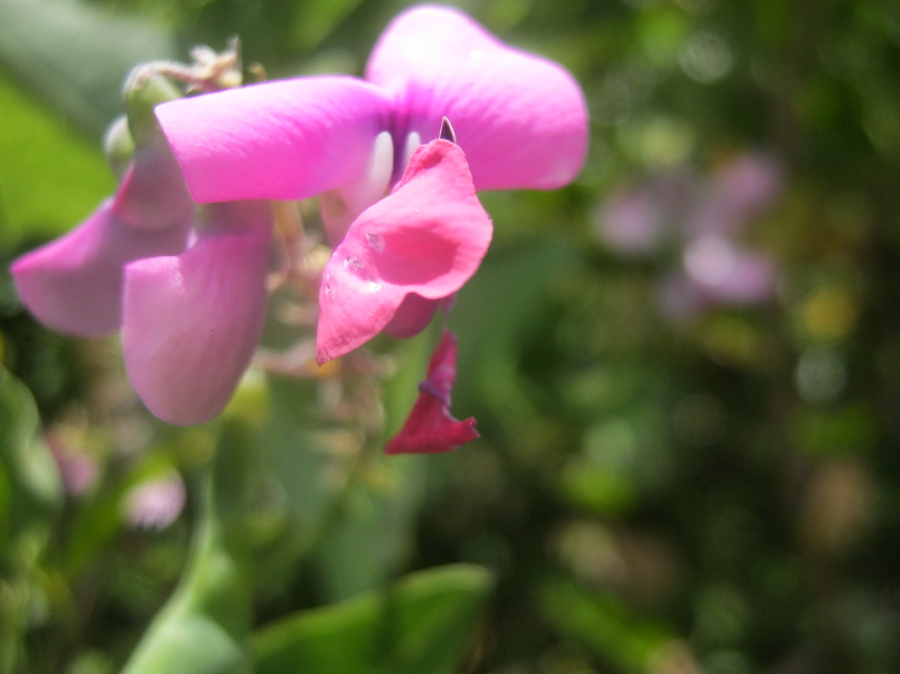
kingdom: Plantae
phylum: Tracheophyta
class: Magnoliopsida
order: Fabales
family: Fabaceae
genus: Dipogon
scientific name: Dipogon lignosus
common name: Okie bean
